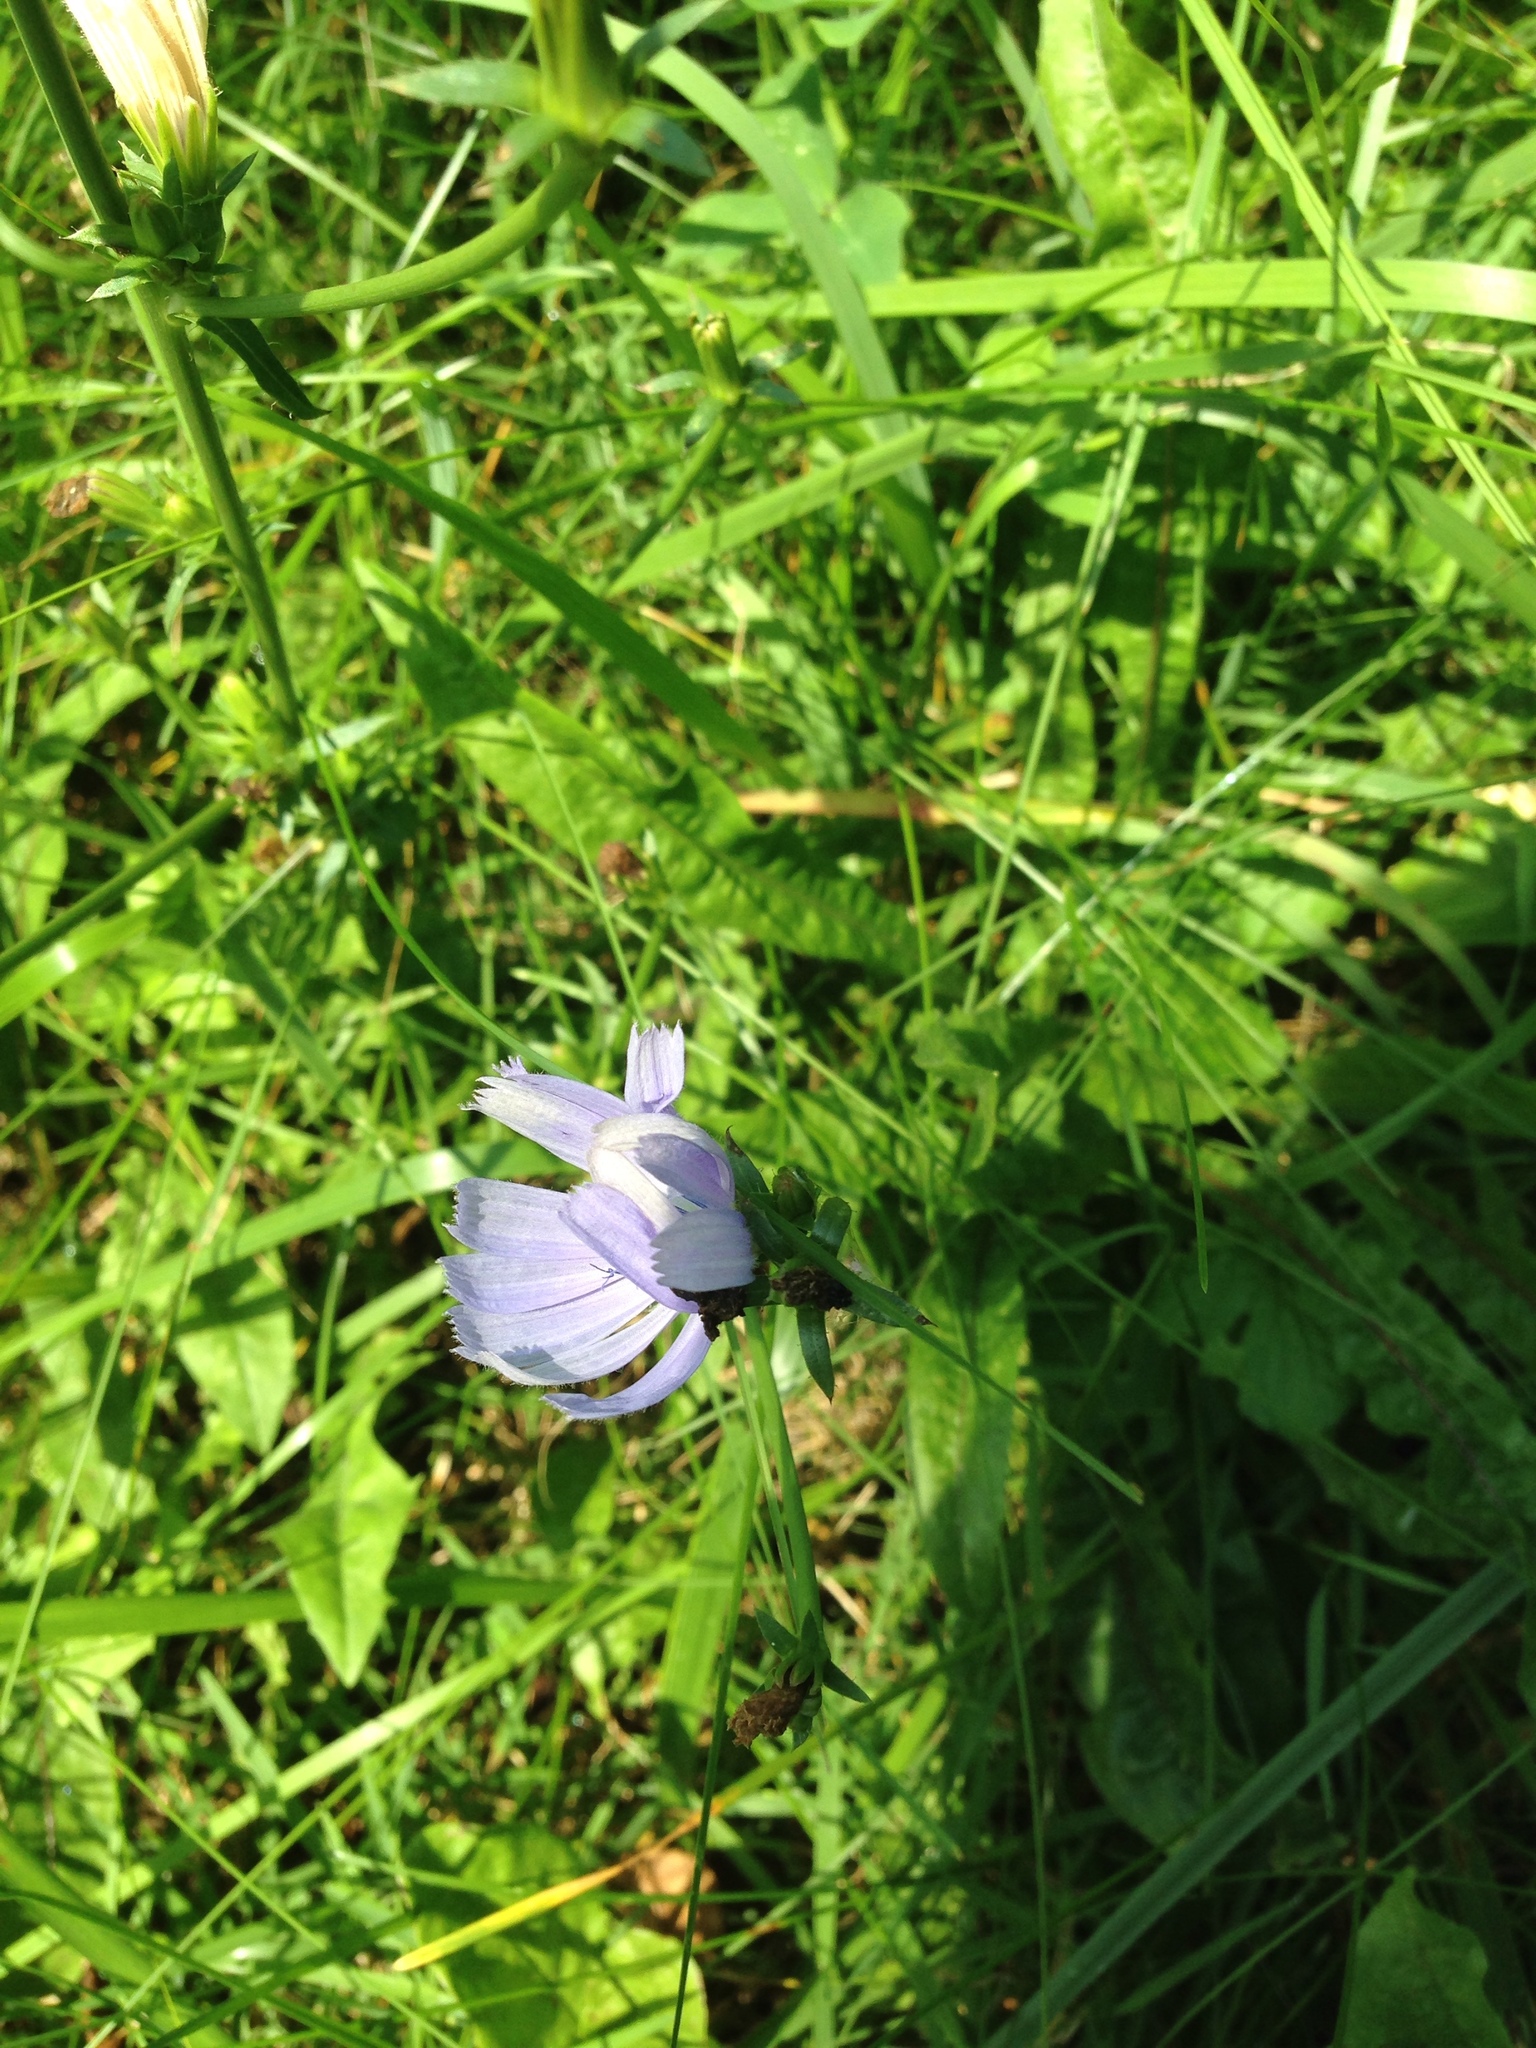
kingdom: Plantae
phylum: Tracheophyta
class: Magnoliopsida
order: Asterales
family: Asteraceae
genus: Cichorium
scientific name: Cichorium intybus
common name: Chicory
